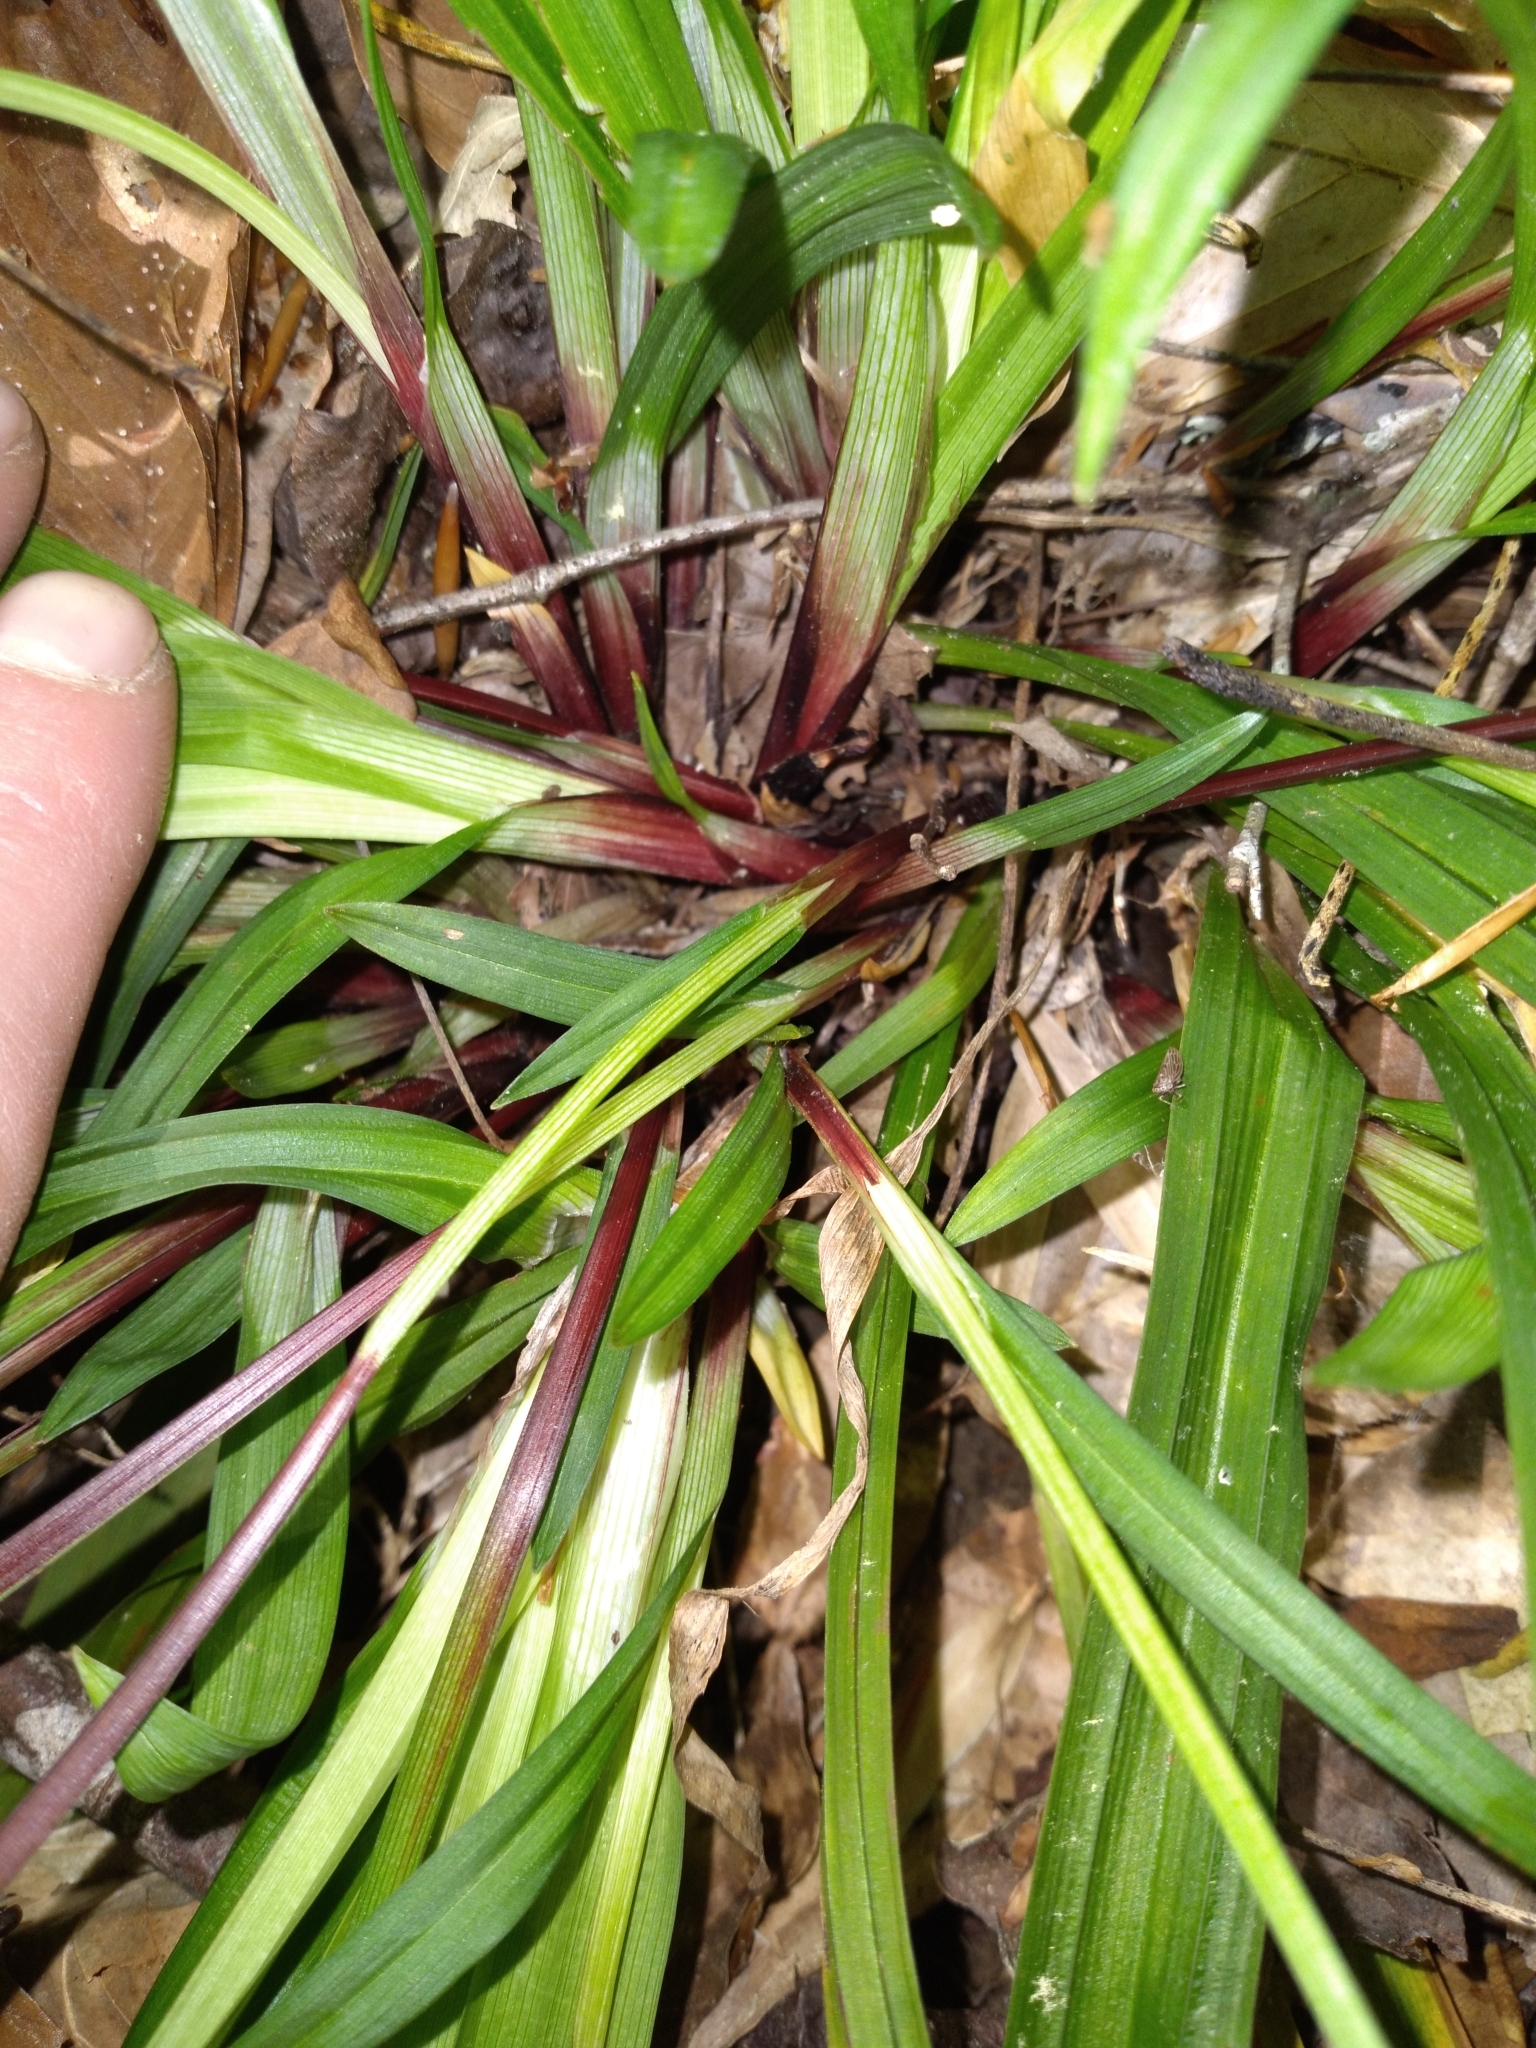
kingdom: Plantae
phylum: Tracheophyta
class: Liliopsida
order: Poales
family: Cyperaceae
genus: Carex
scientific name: Carex careyana
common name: Carey's sedge
